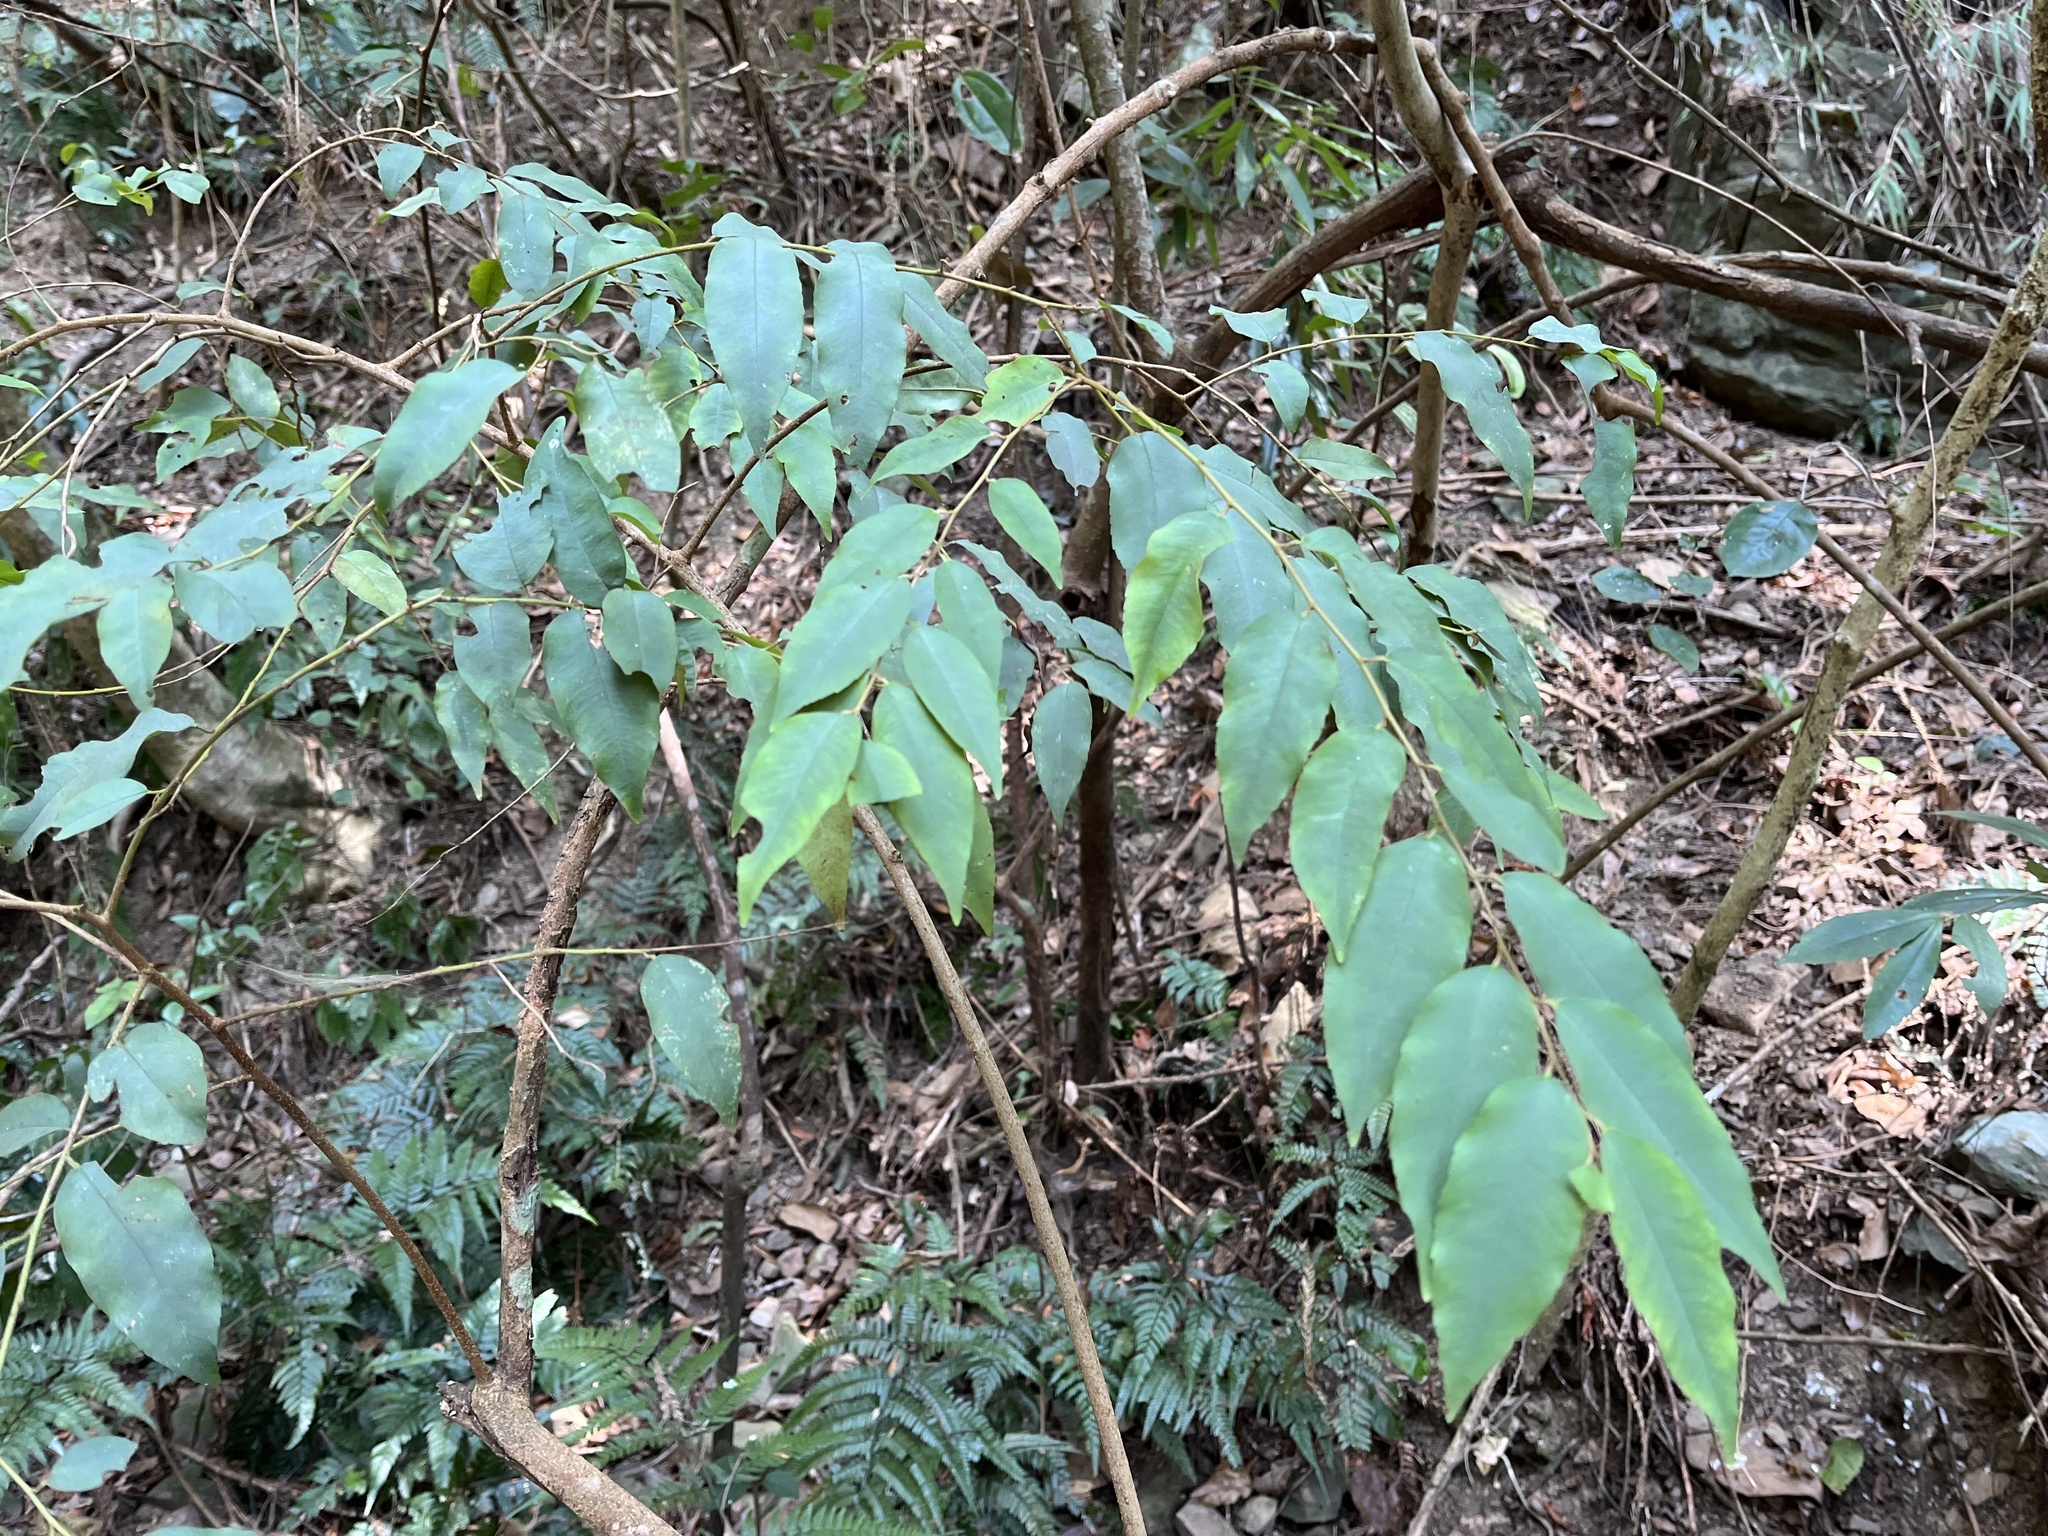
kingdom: Plantae
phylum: Tracheophyta
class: Magnoliopsida
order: Ericales
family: Primulaceae
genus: Embelia
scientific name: Embelia vestita
